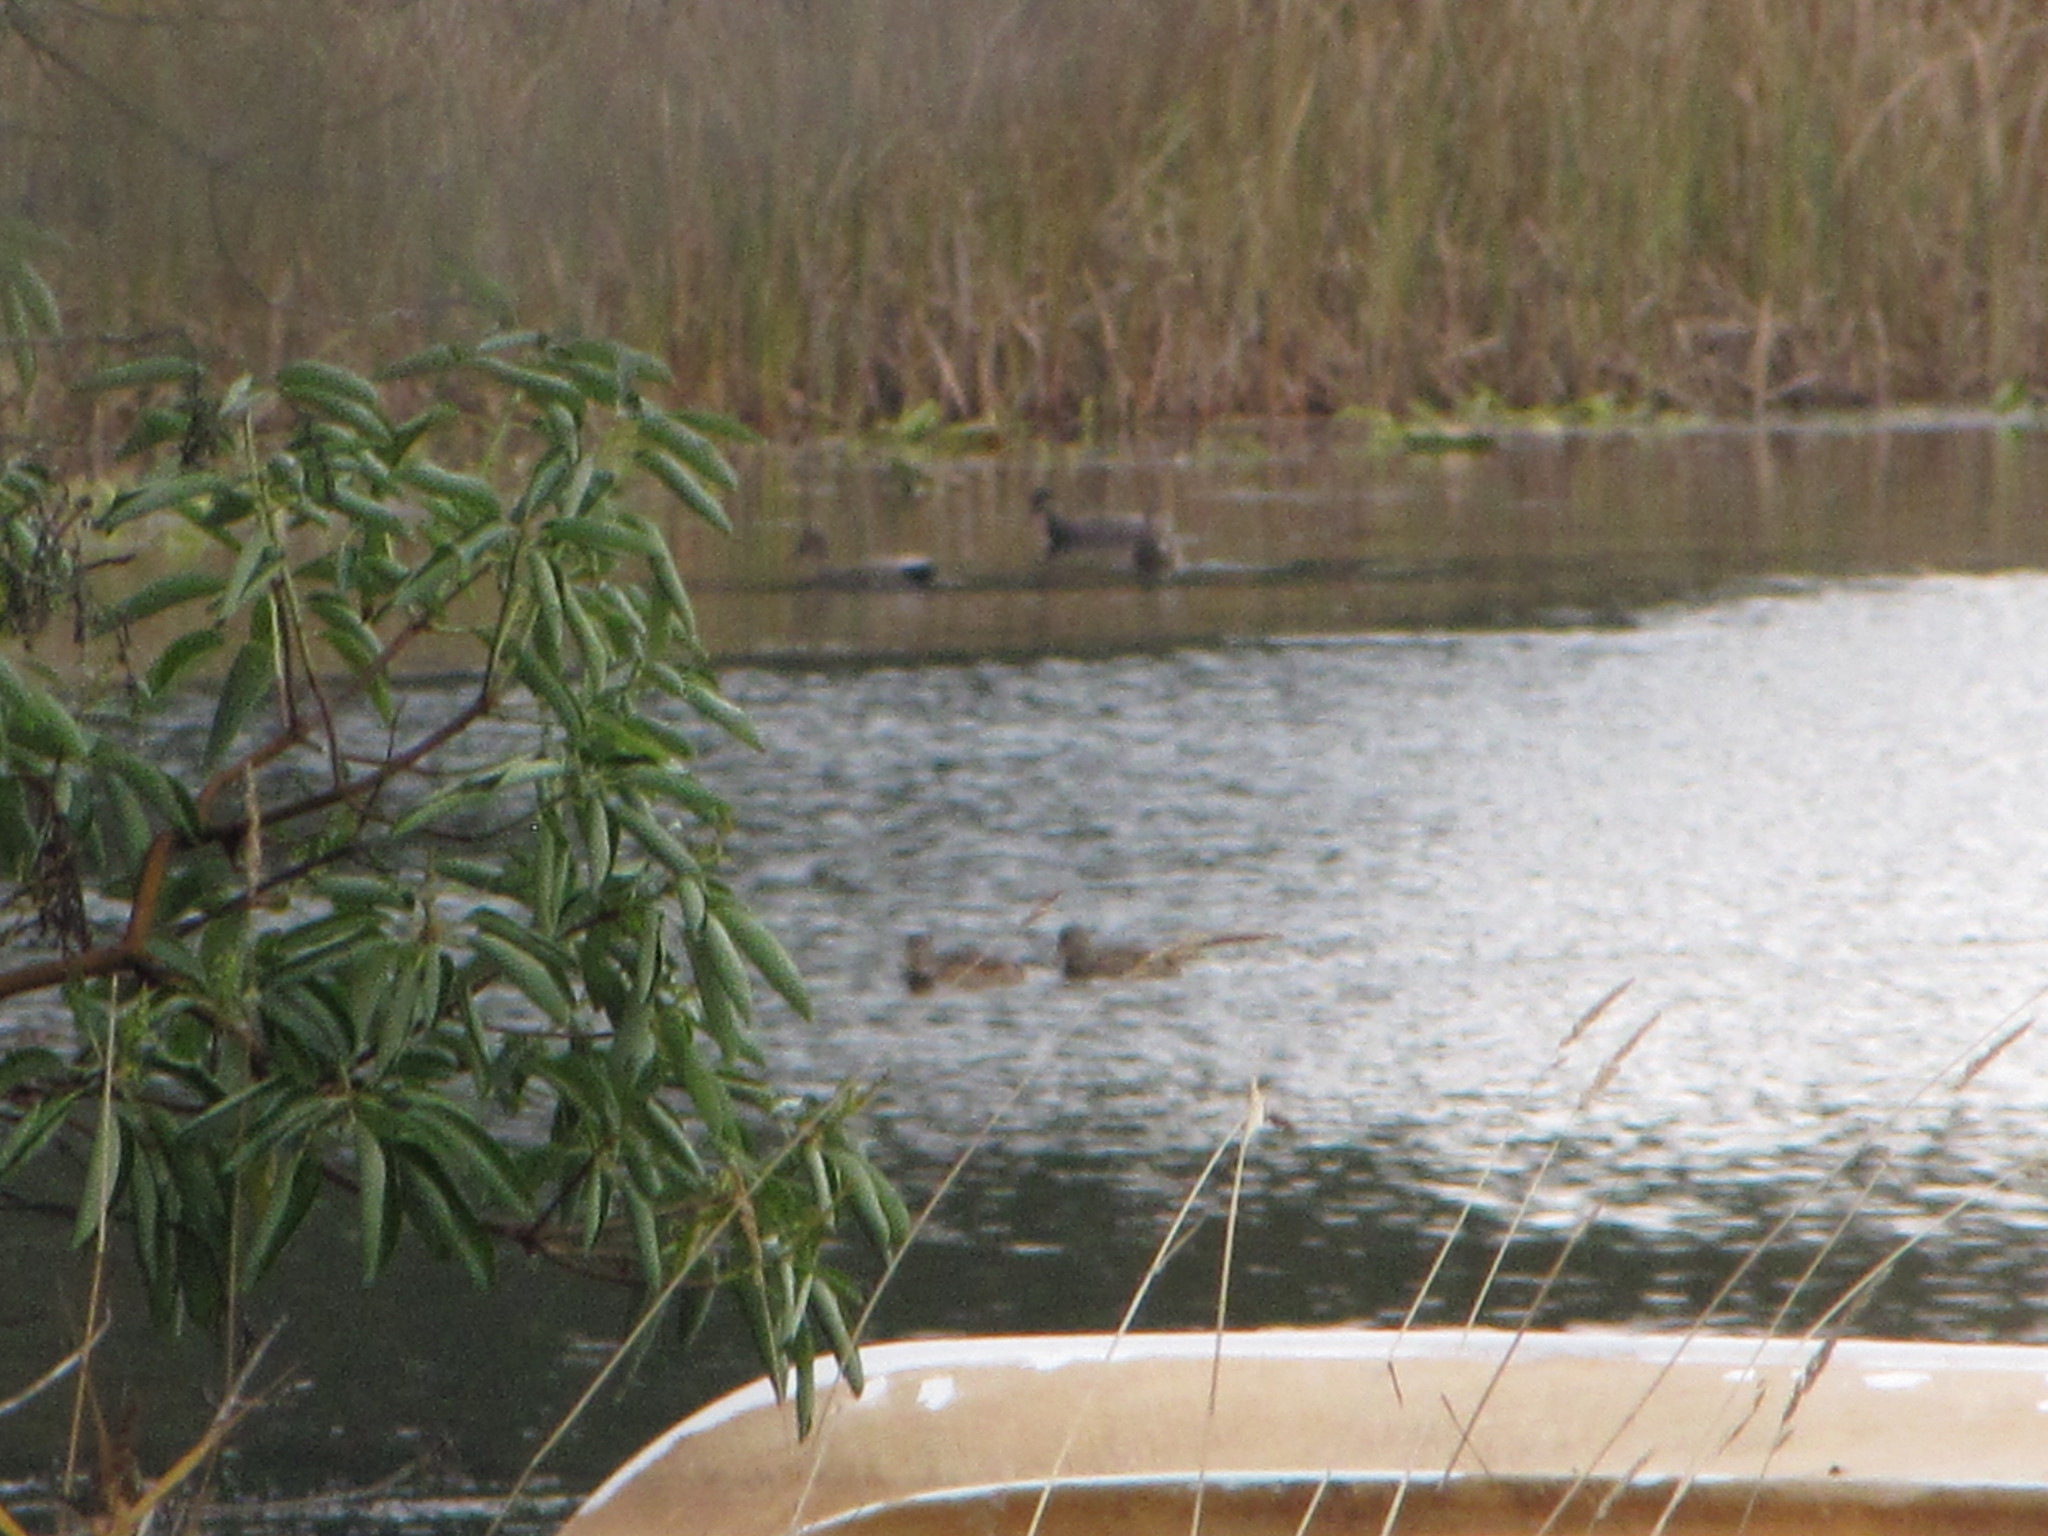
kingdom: Animalia
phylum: Chordata
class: Aves
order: Anseriformes
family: Anatidae
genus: Mareca
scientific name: Mareca strepera
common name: Gadwall
